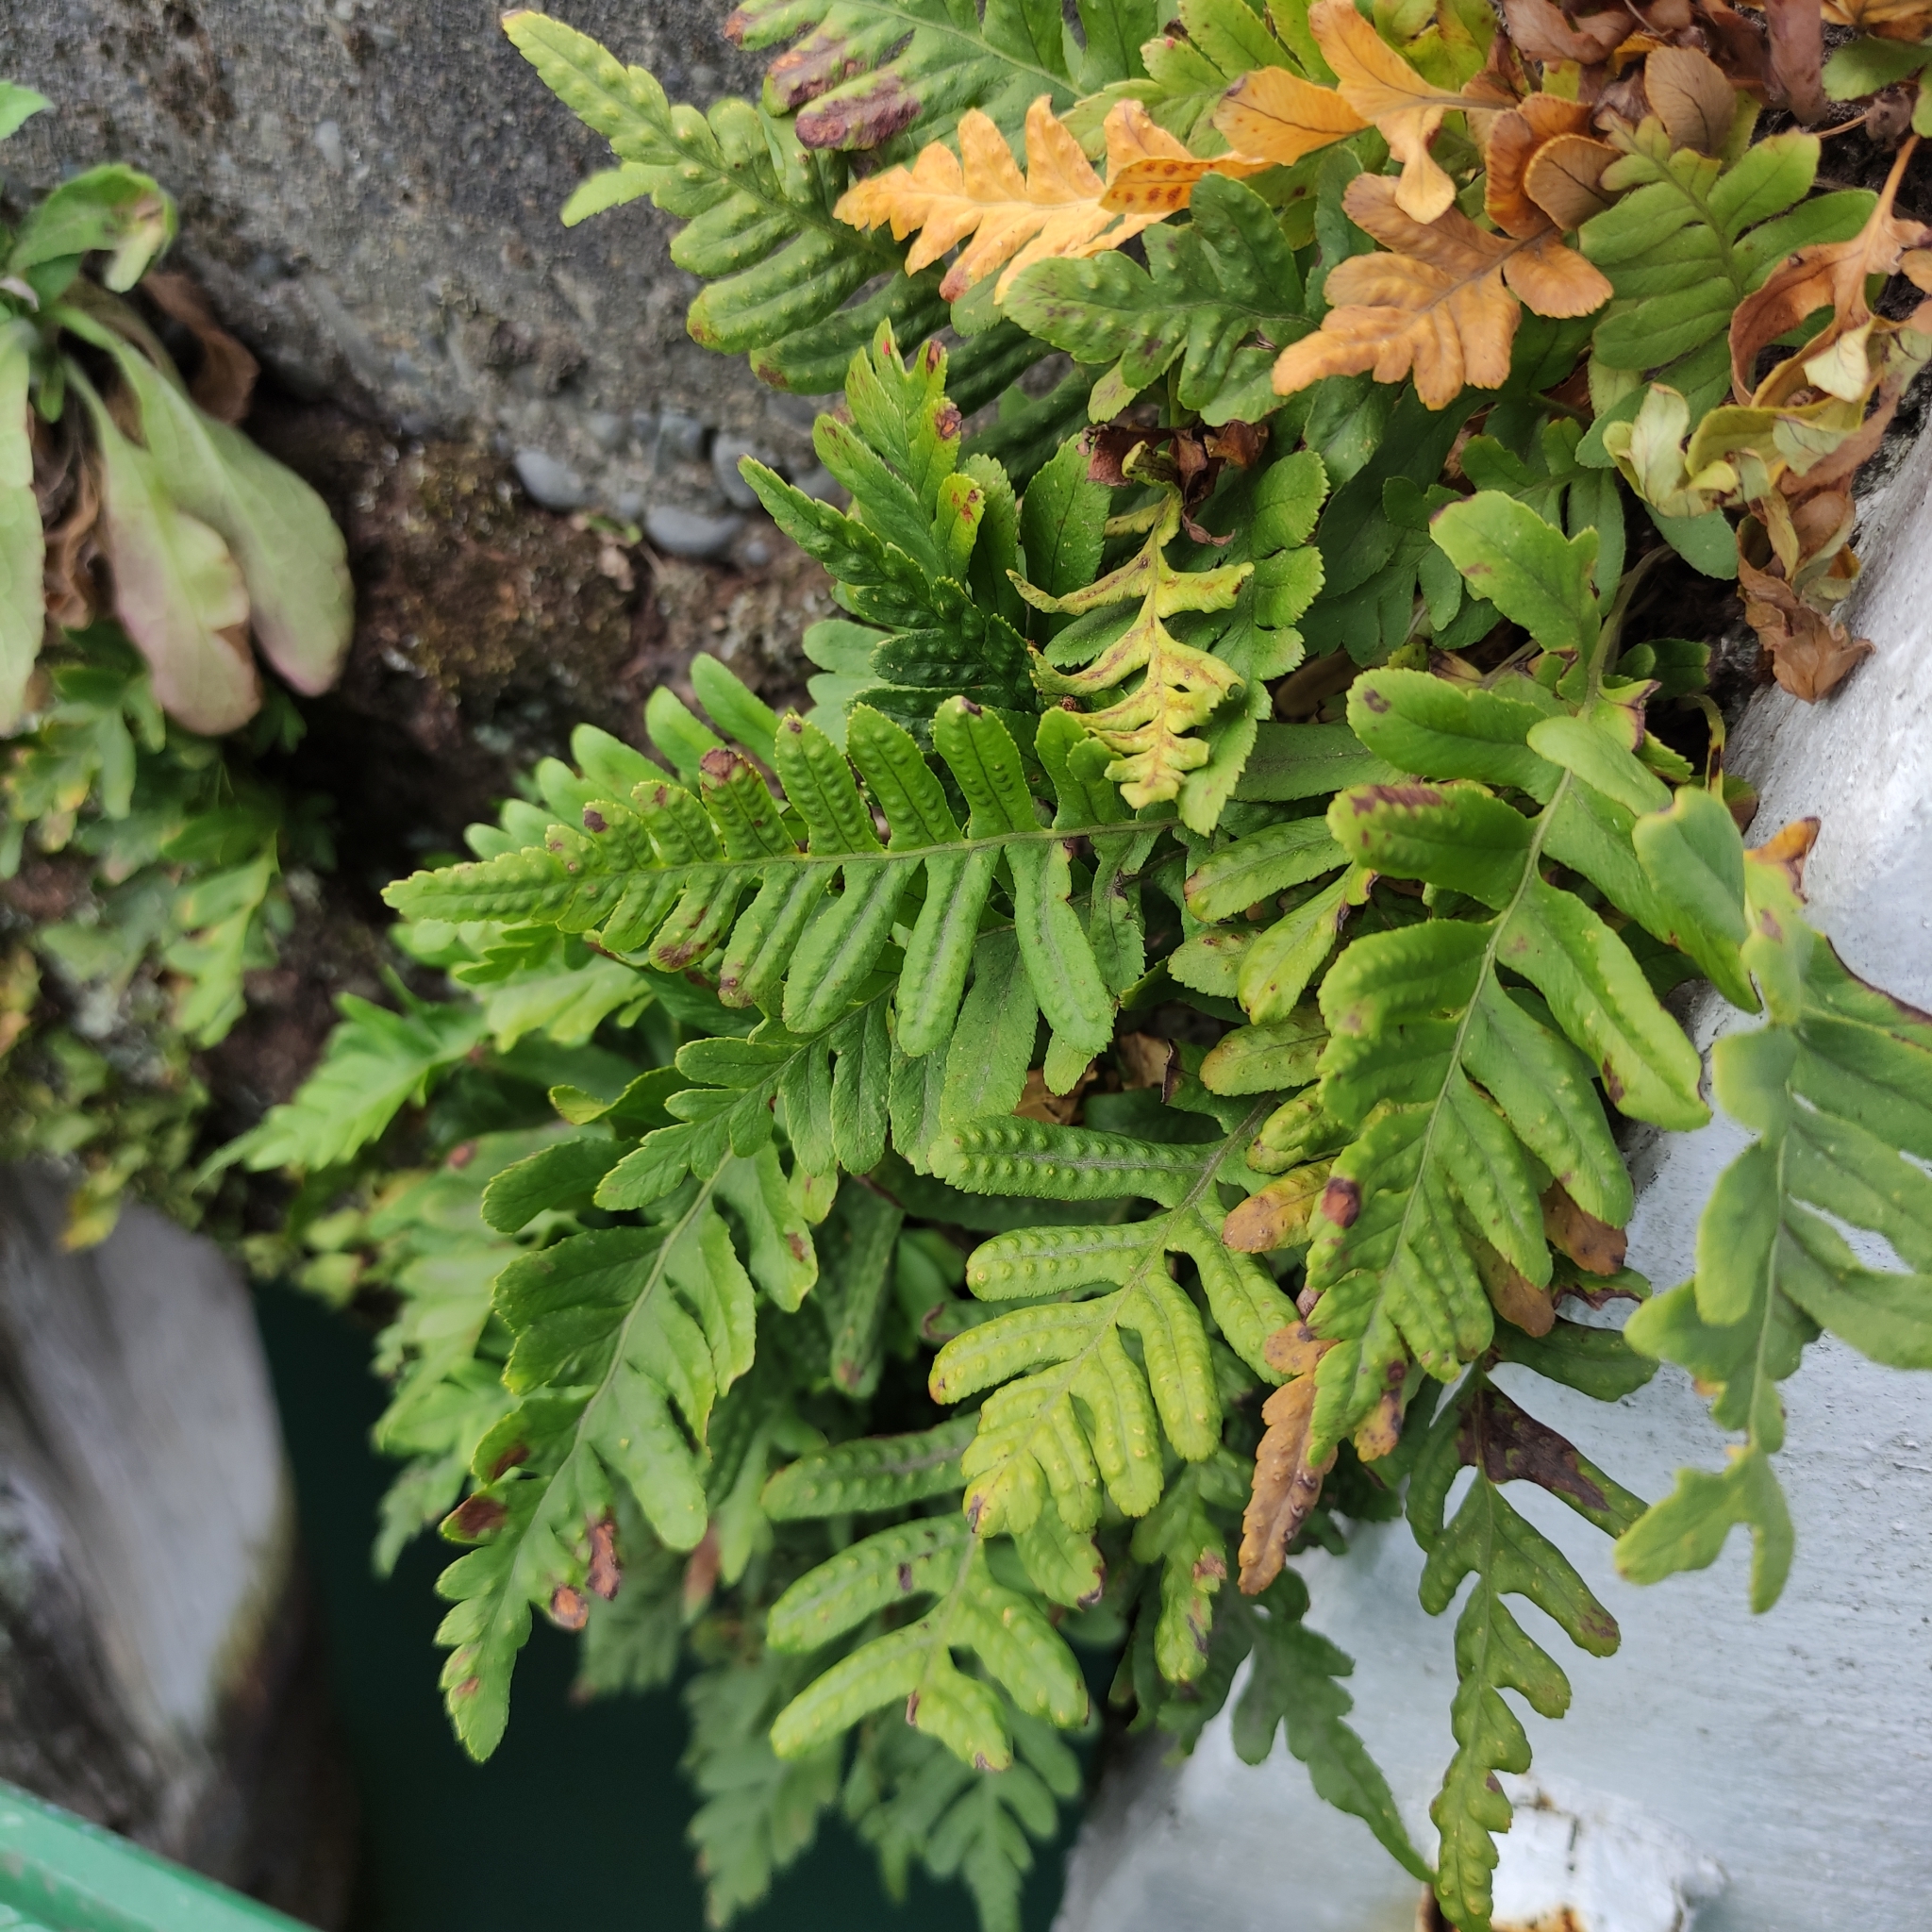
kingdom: Plantae
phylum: Tracheophyta
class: Polypodiopsida
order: Polypodiales
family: Polypodiaceae
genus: Polypodium
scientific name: Polypodium vulgare
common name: Common polypody
